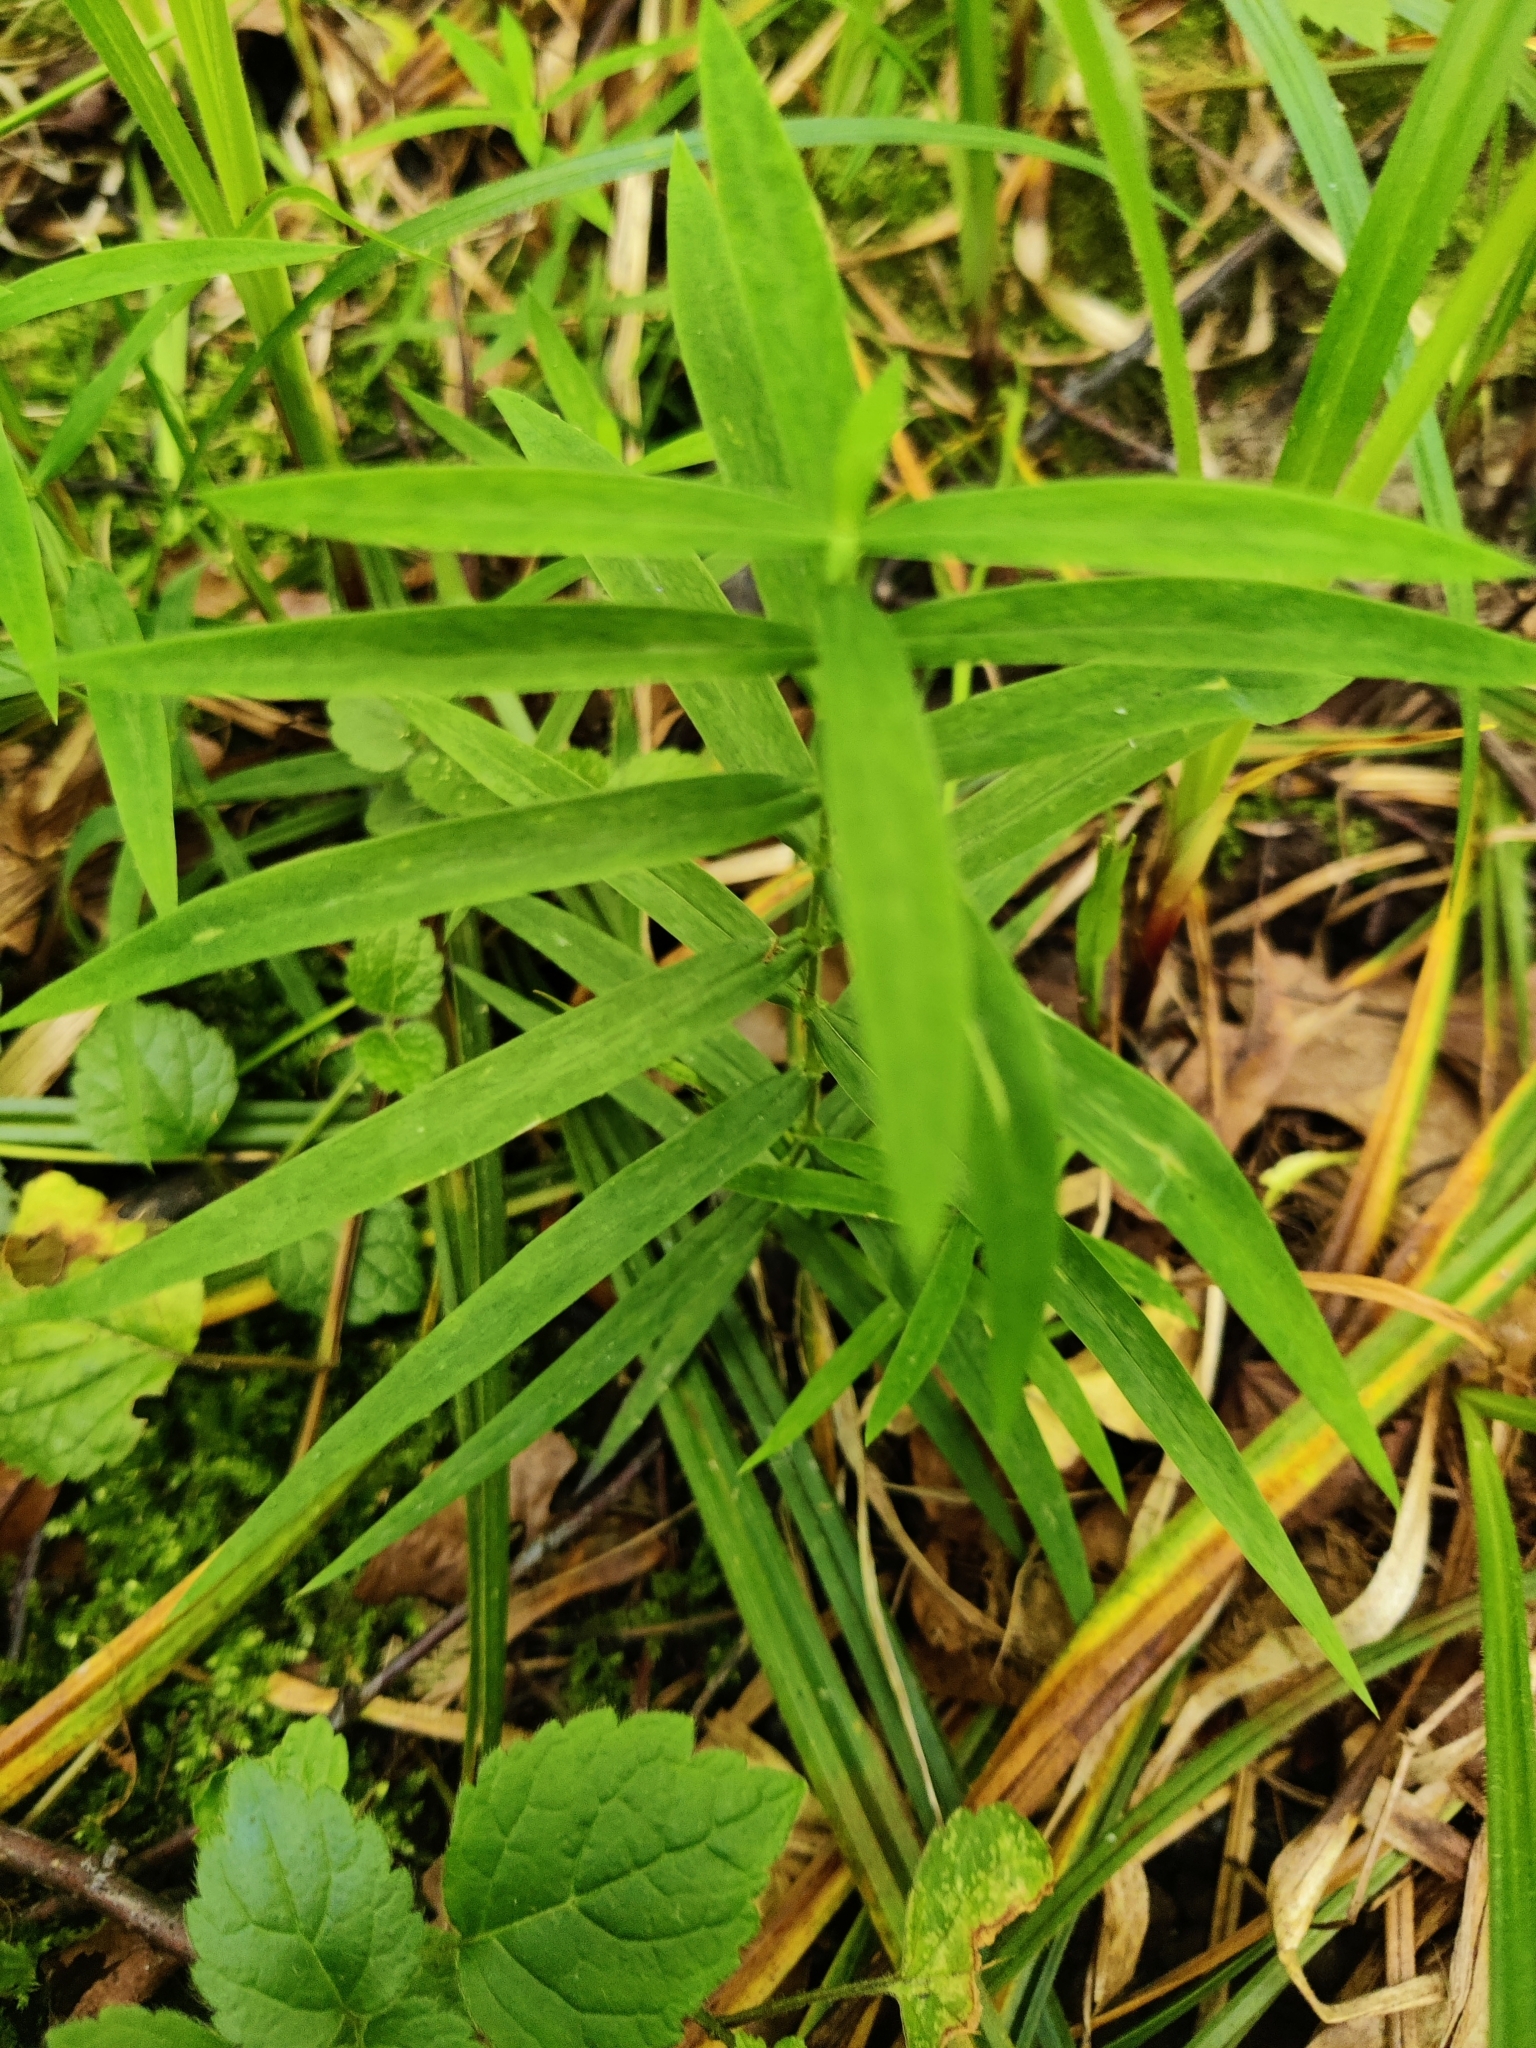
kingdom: Plantae
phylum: Tracheophyta
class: Magnoliopsida
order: Caryophyllales
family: Caryophyllaceae
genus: Rabelera
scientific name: Rabelera holostea
